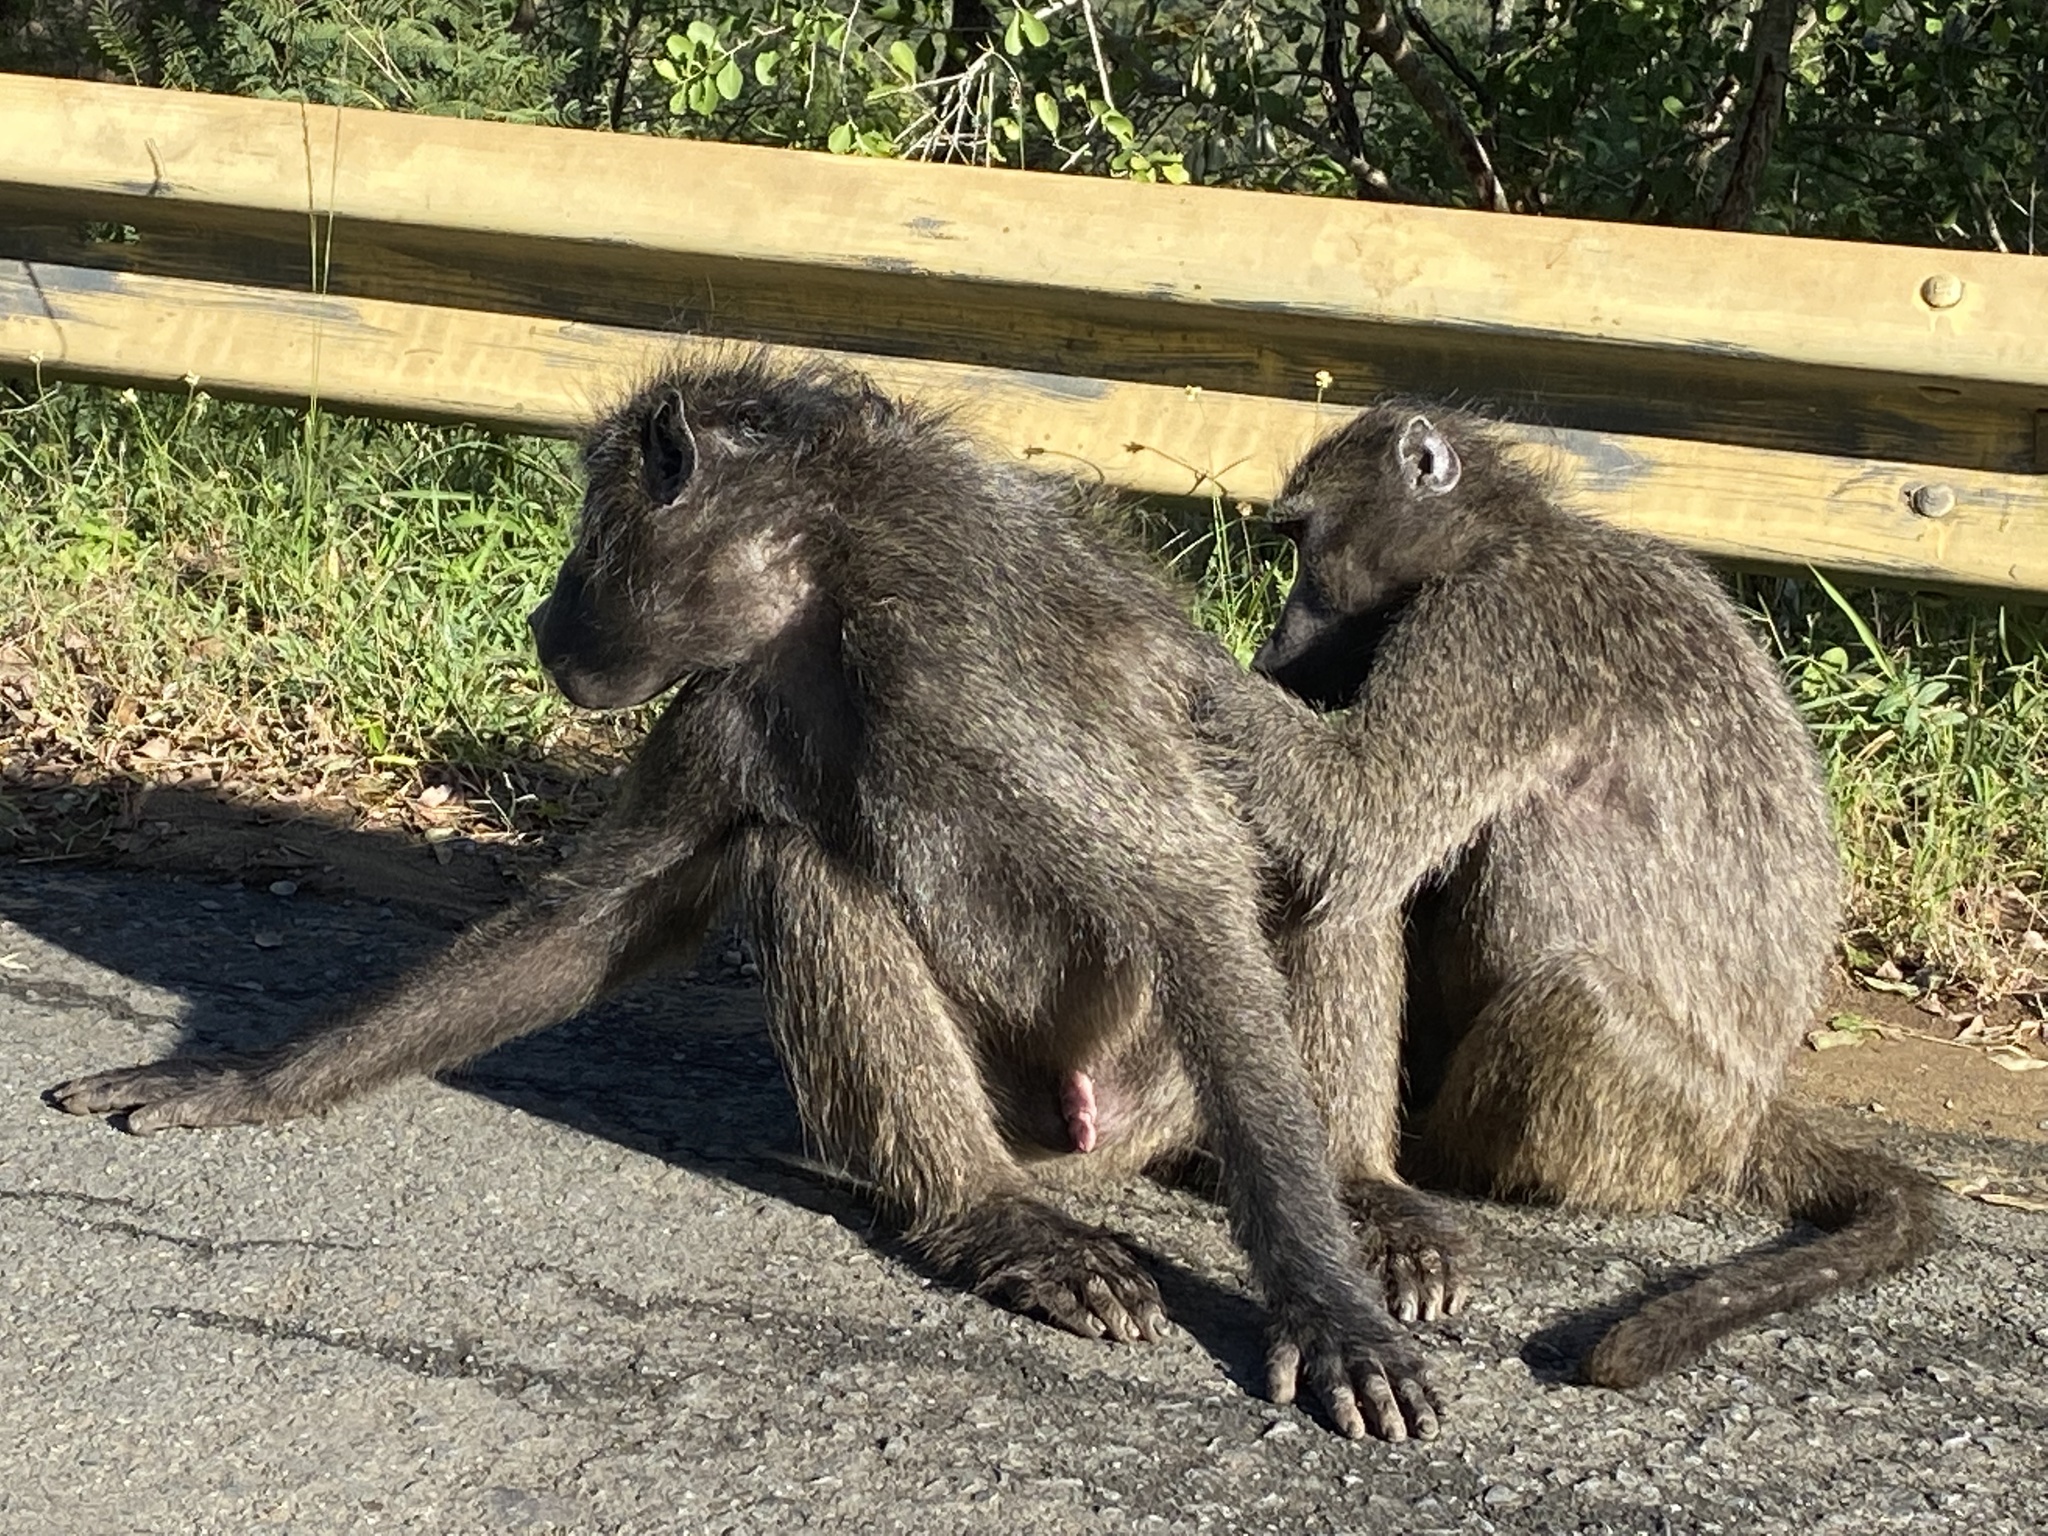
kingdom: Animalia
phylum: Chordata
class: Mammalia
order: Primates
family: Cercopithecidae
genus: Papio
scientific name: Papio ursinus
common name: Chacma baboon
